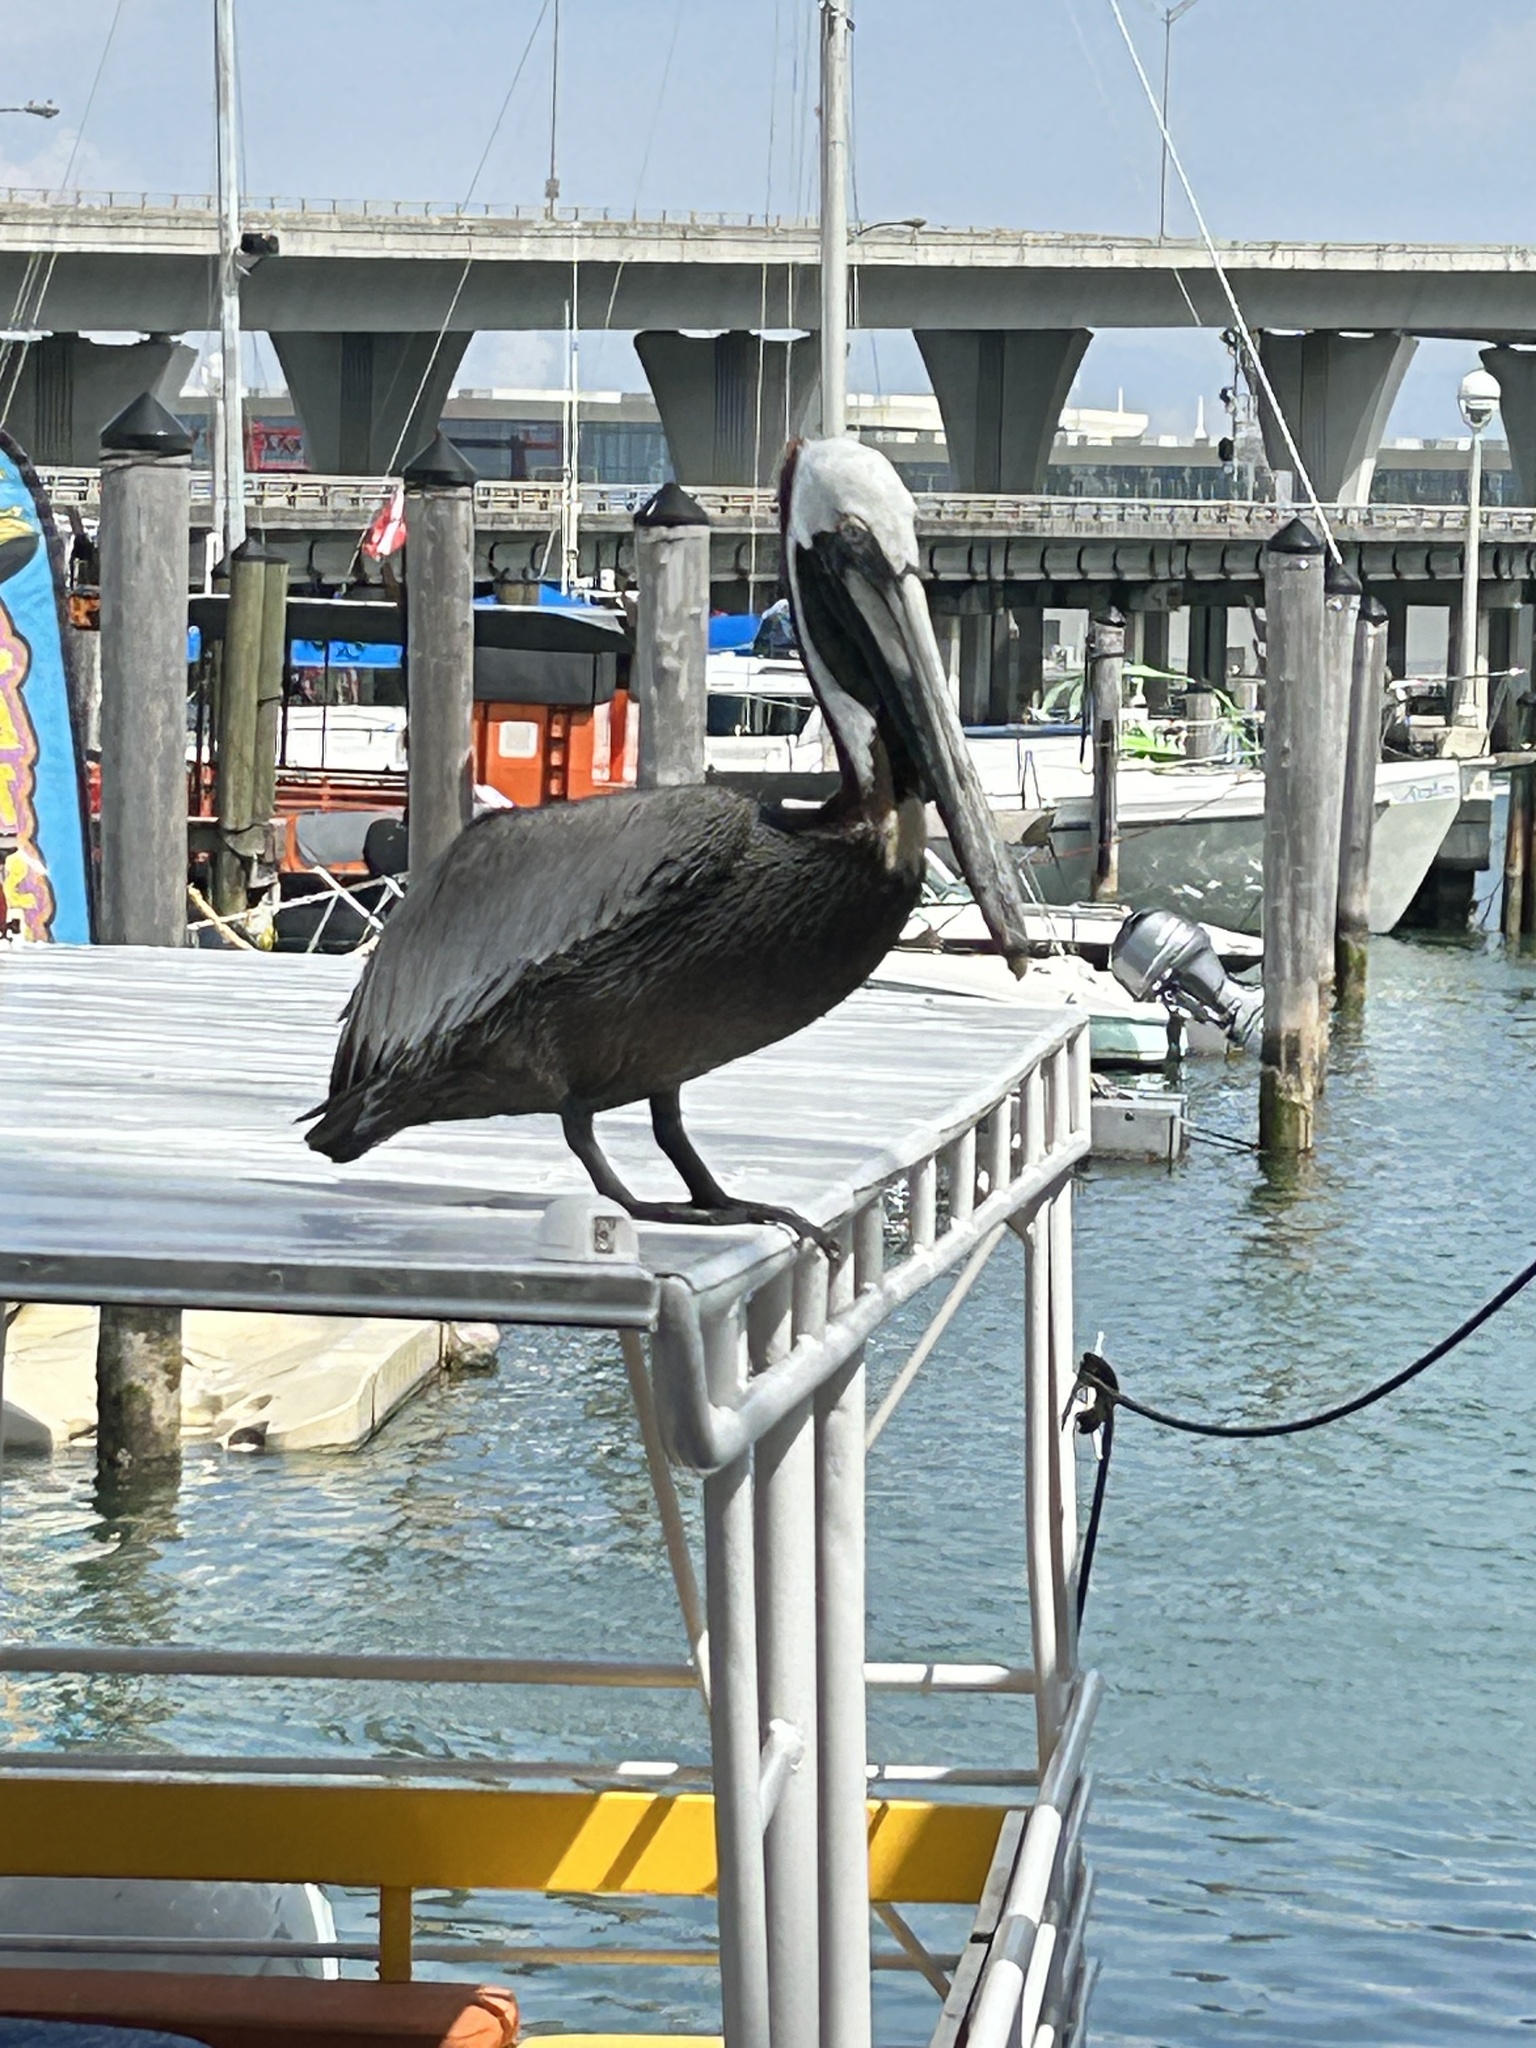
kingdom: Animalia
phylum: Chordata
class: Aves
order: Pelecaniformes
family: Pelecanidae
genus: Pelecanus
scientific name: Pelecanus occidentalis
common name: Brown pelican
